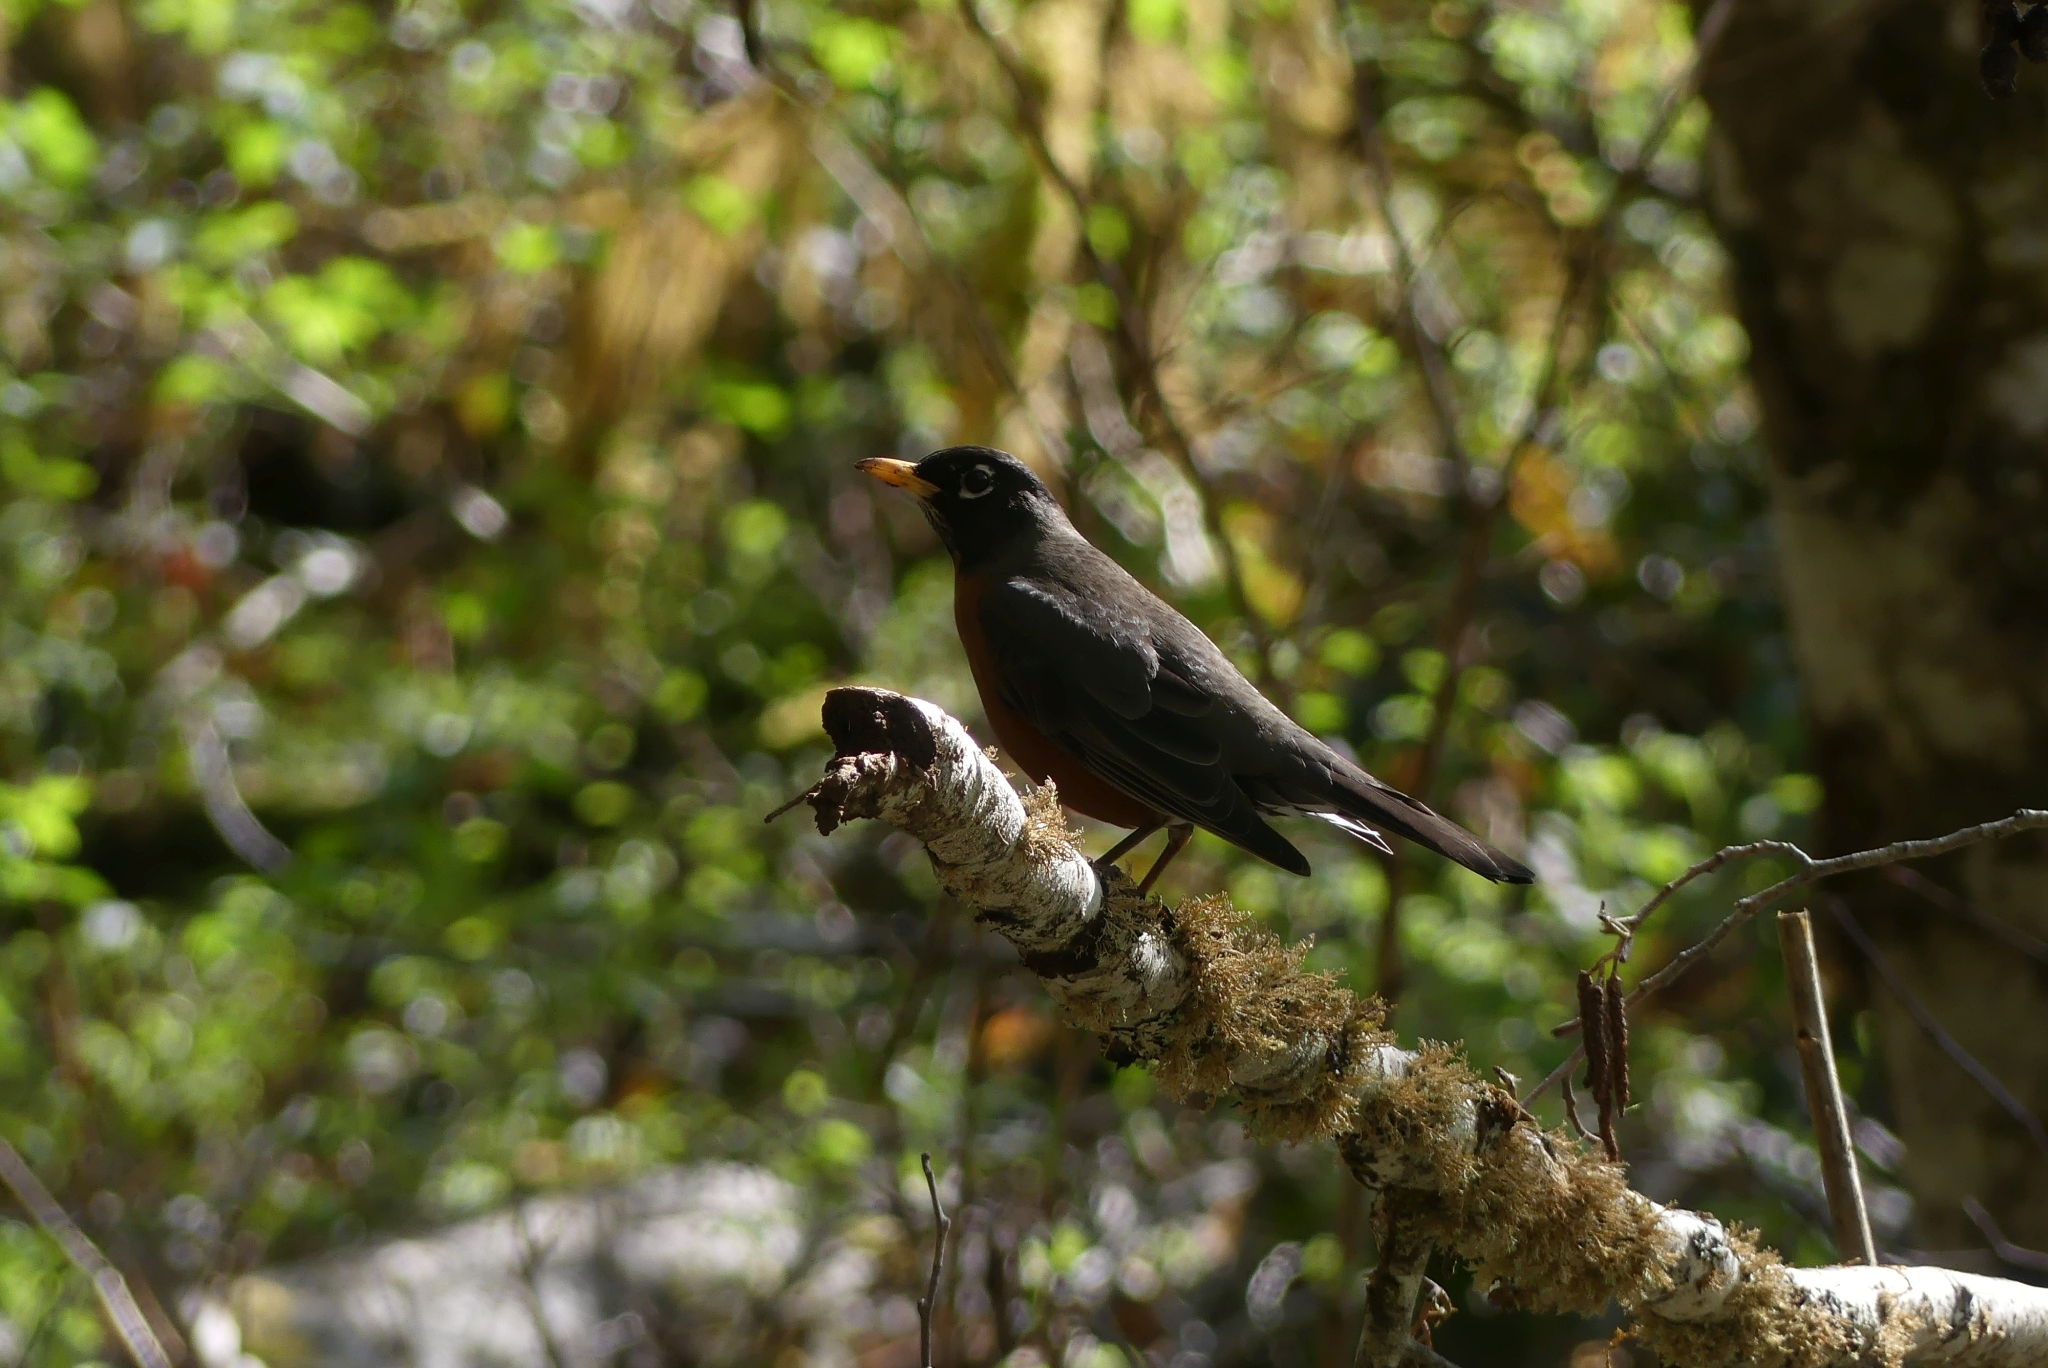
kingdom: Animalia
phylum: Chordata
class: Aves
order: Passeriformes
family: Turdidae
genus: Turdus
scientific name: Turdus migratorius
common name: American robin
